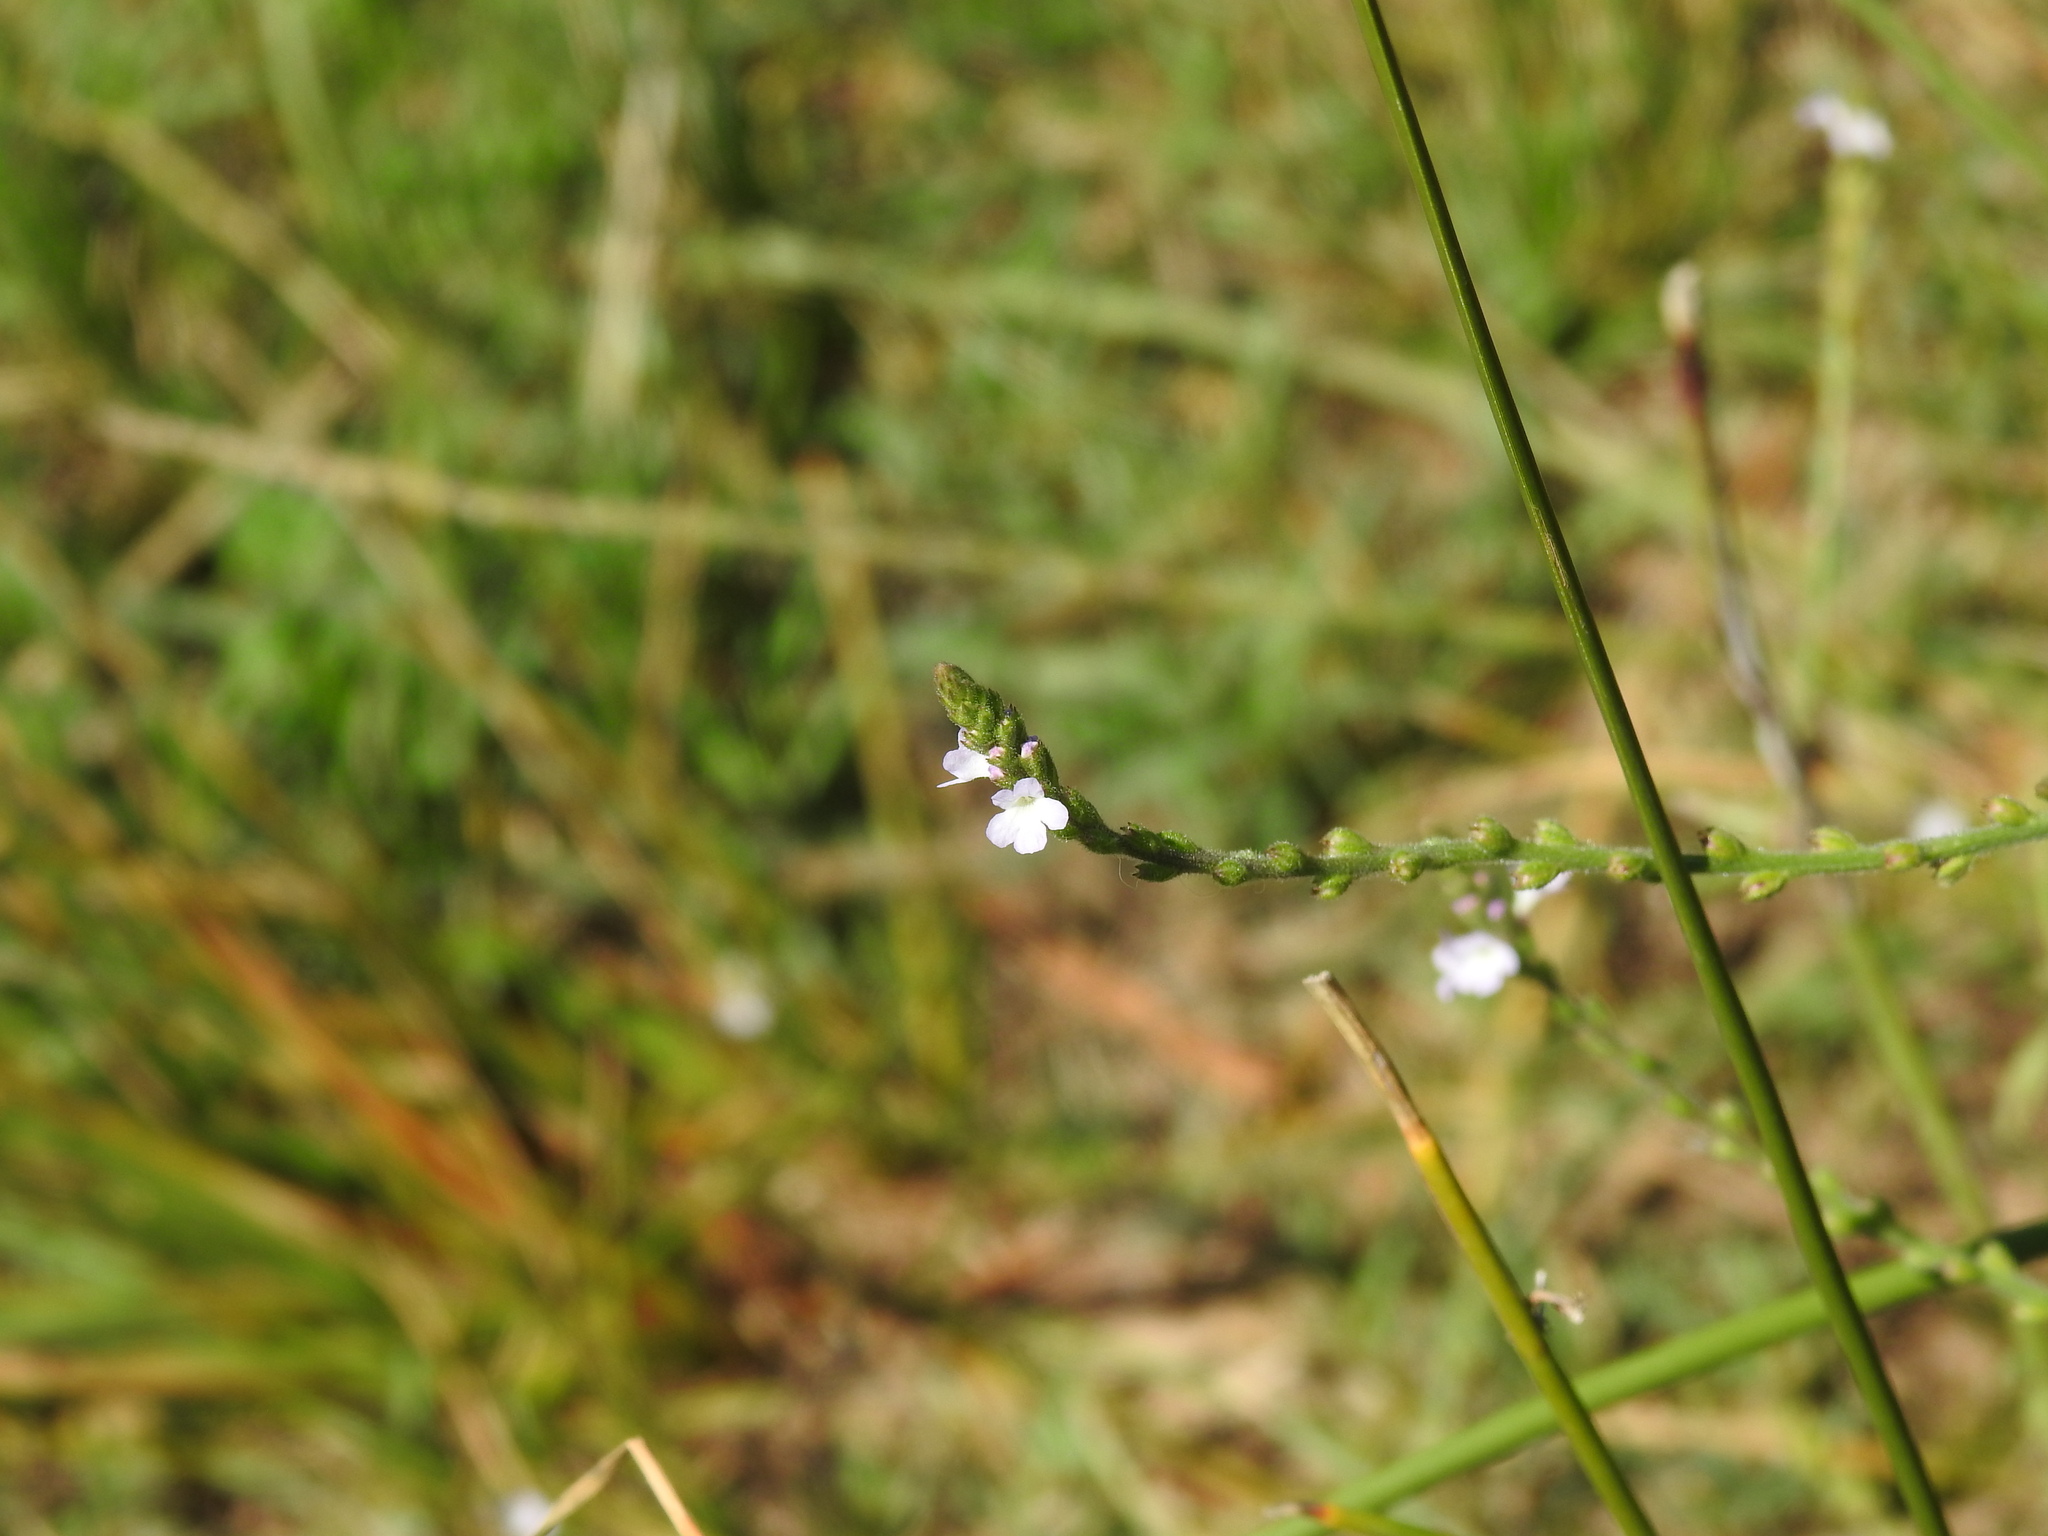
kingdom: Plantae
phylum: Tracheophyta
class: Magnoliopsida
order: Lamiales
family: Verbenaceae
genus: Verbena
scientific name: Verbena officinalis
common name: Vervain
